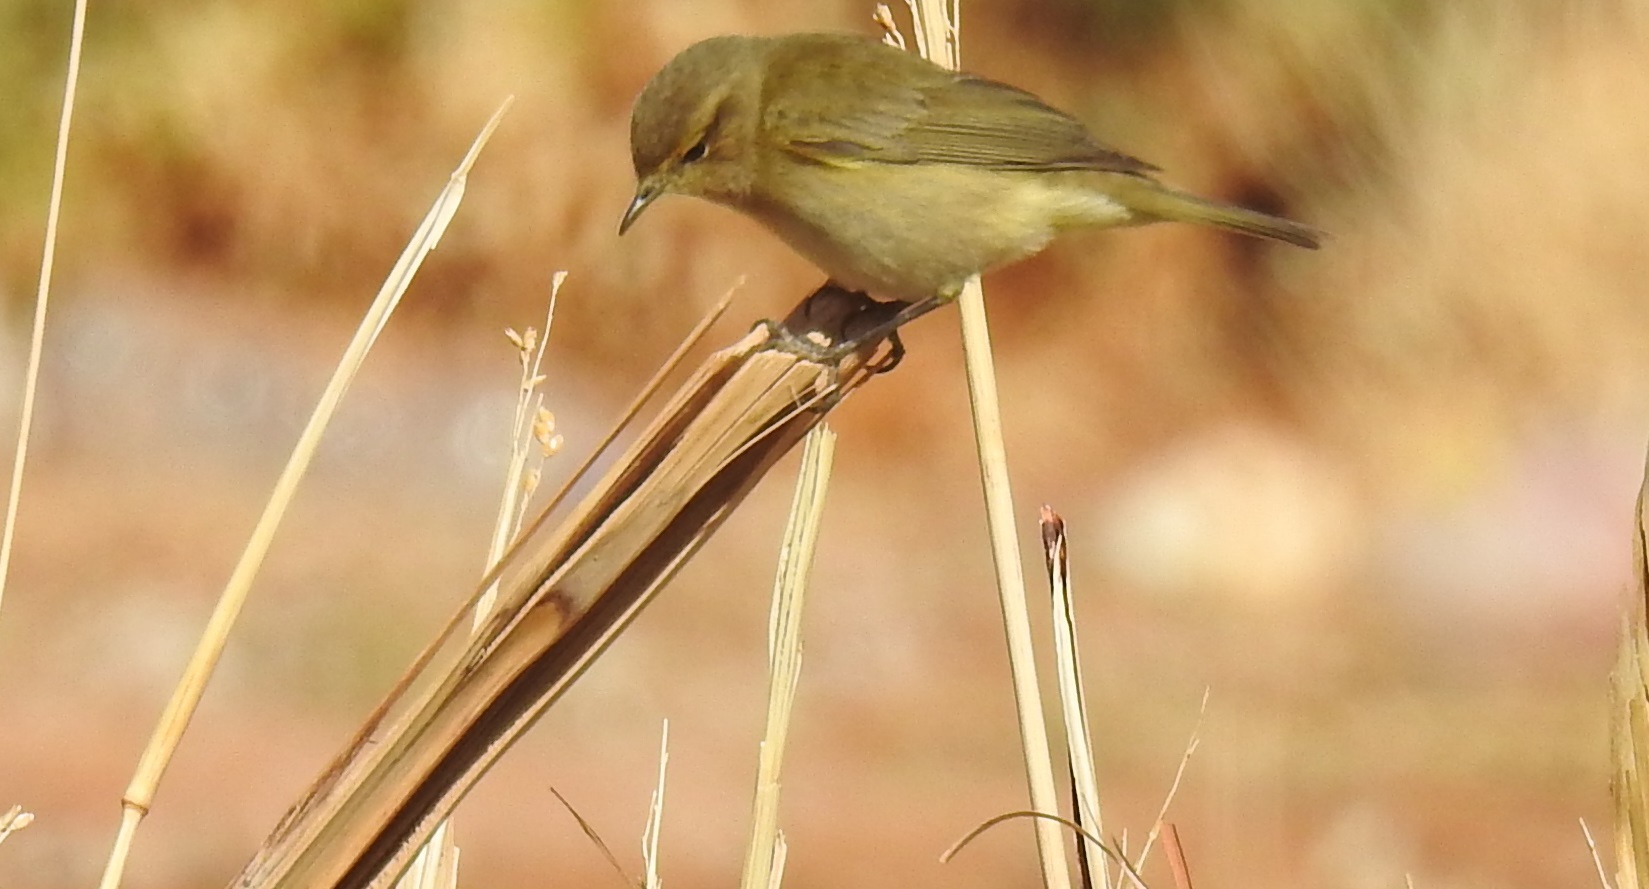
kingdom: Animalia
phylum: Chordata
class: Aves
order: Passeriformes
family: Phylloscopidae
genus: Phylloscopus
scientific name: Phylloscopus collybita
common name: Common chiffchaff
